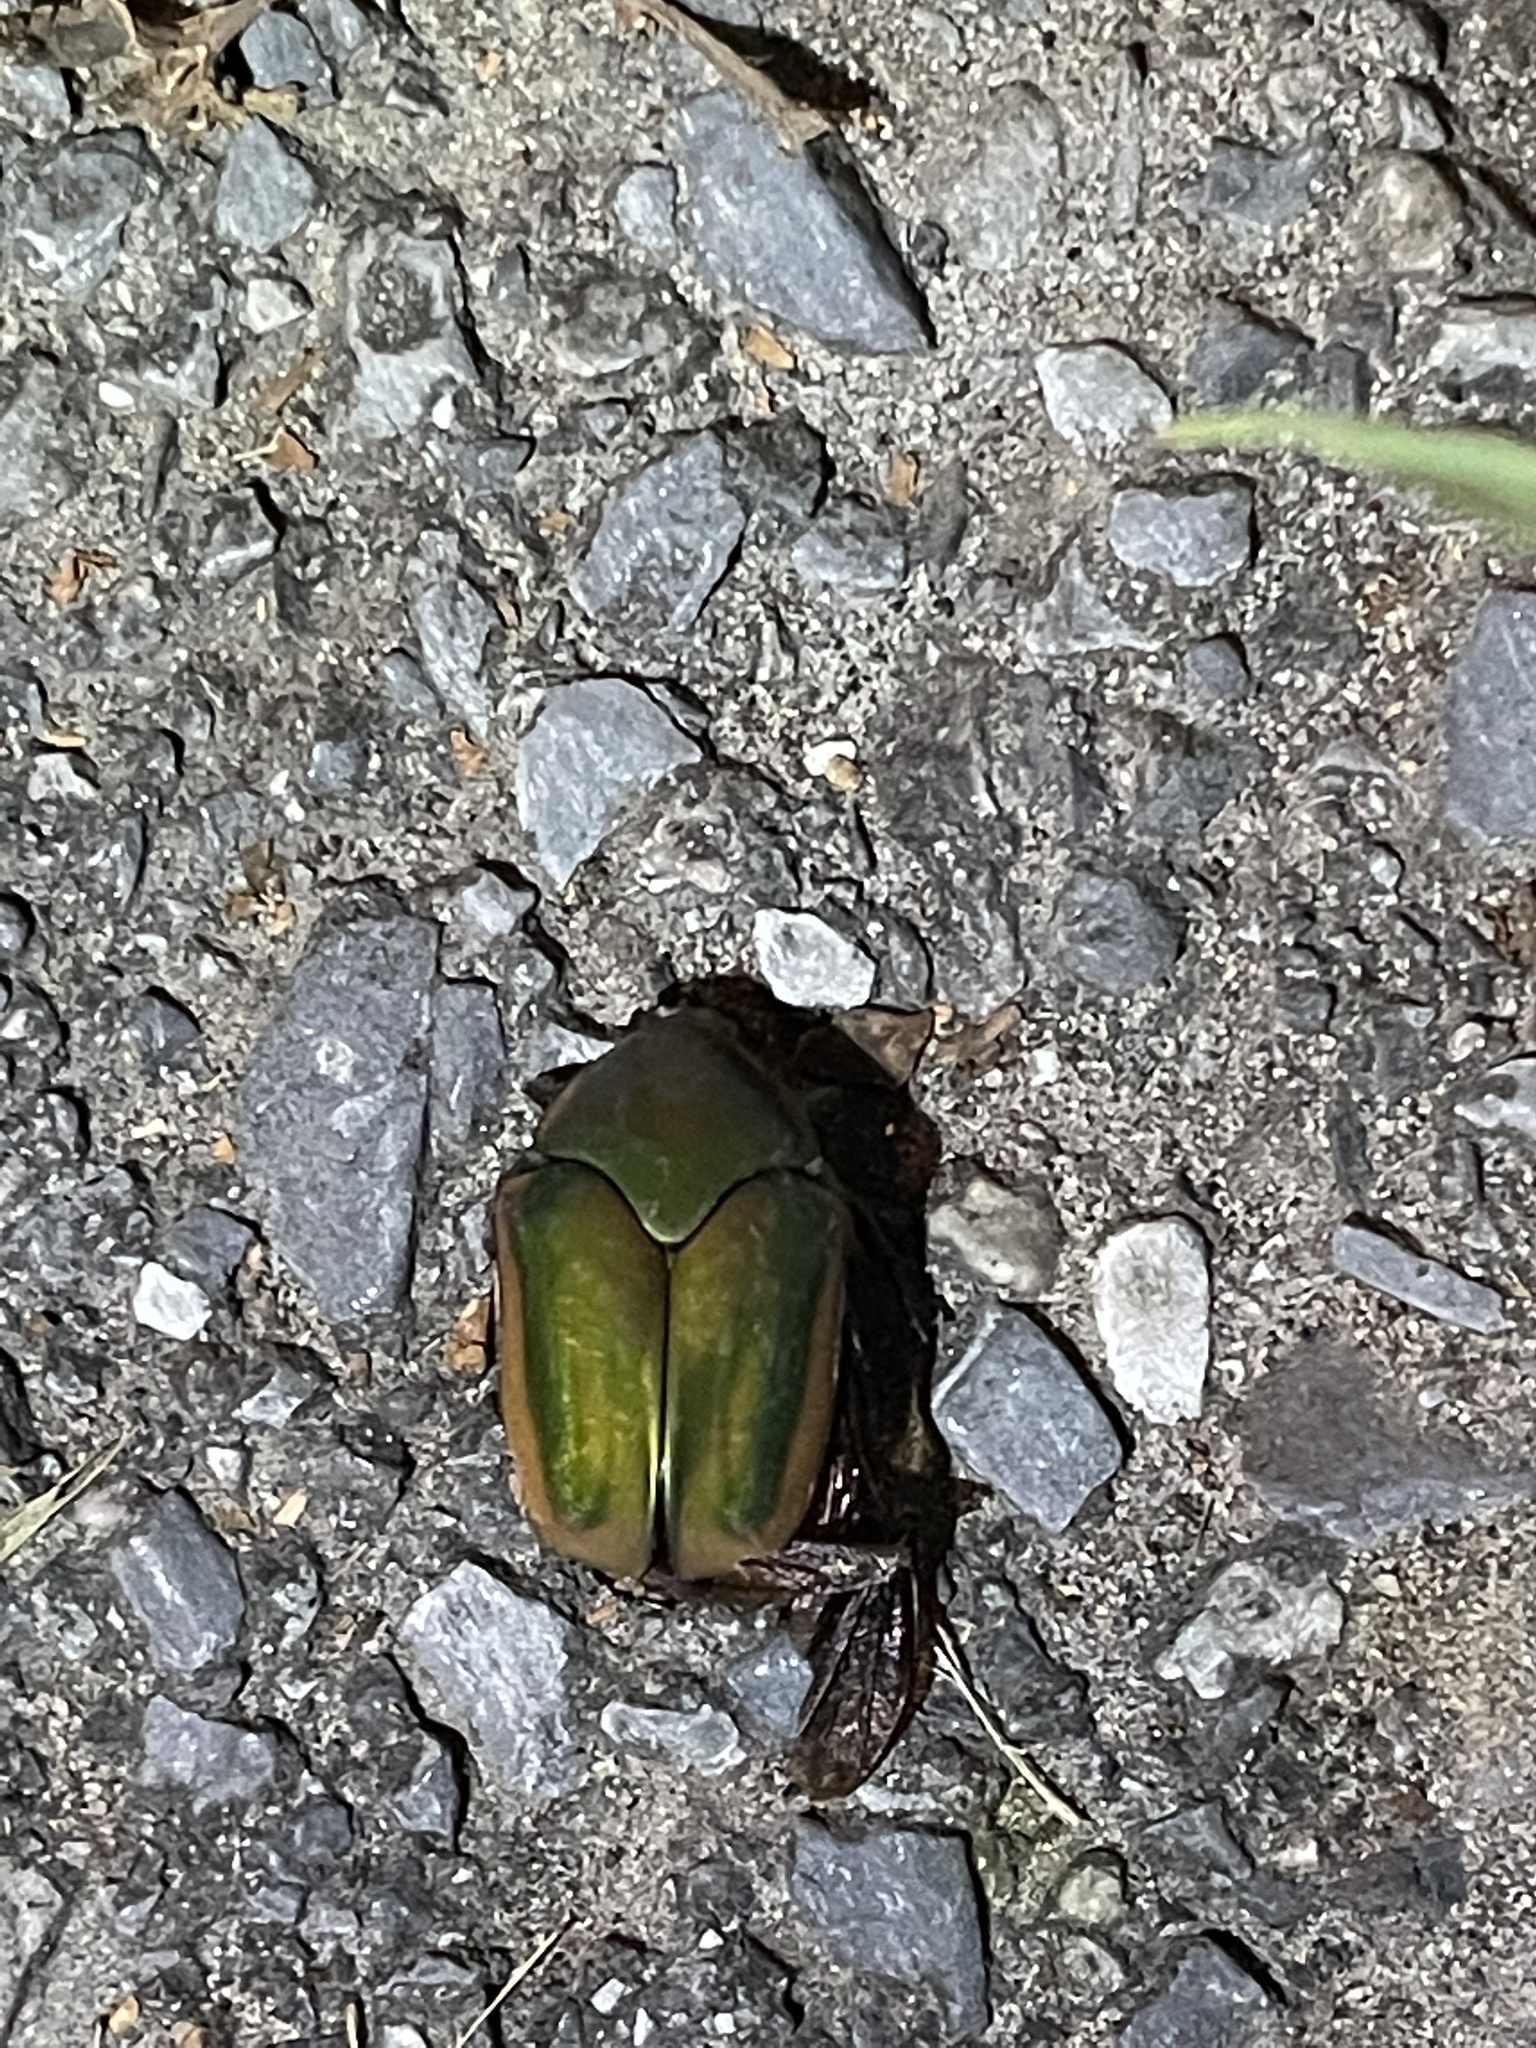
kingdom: Animalia
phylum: Arthropoda
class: Insecta
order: Coleoptera
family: Scarabaeidae
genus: Cotinis
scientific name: Cotinis nitida
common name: Common green june beetle
